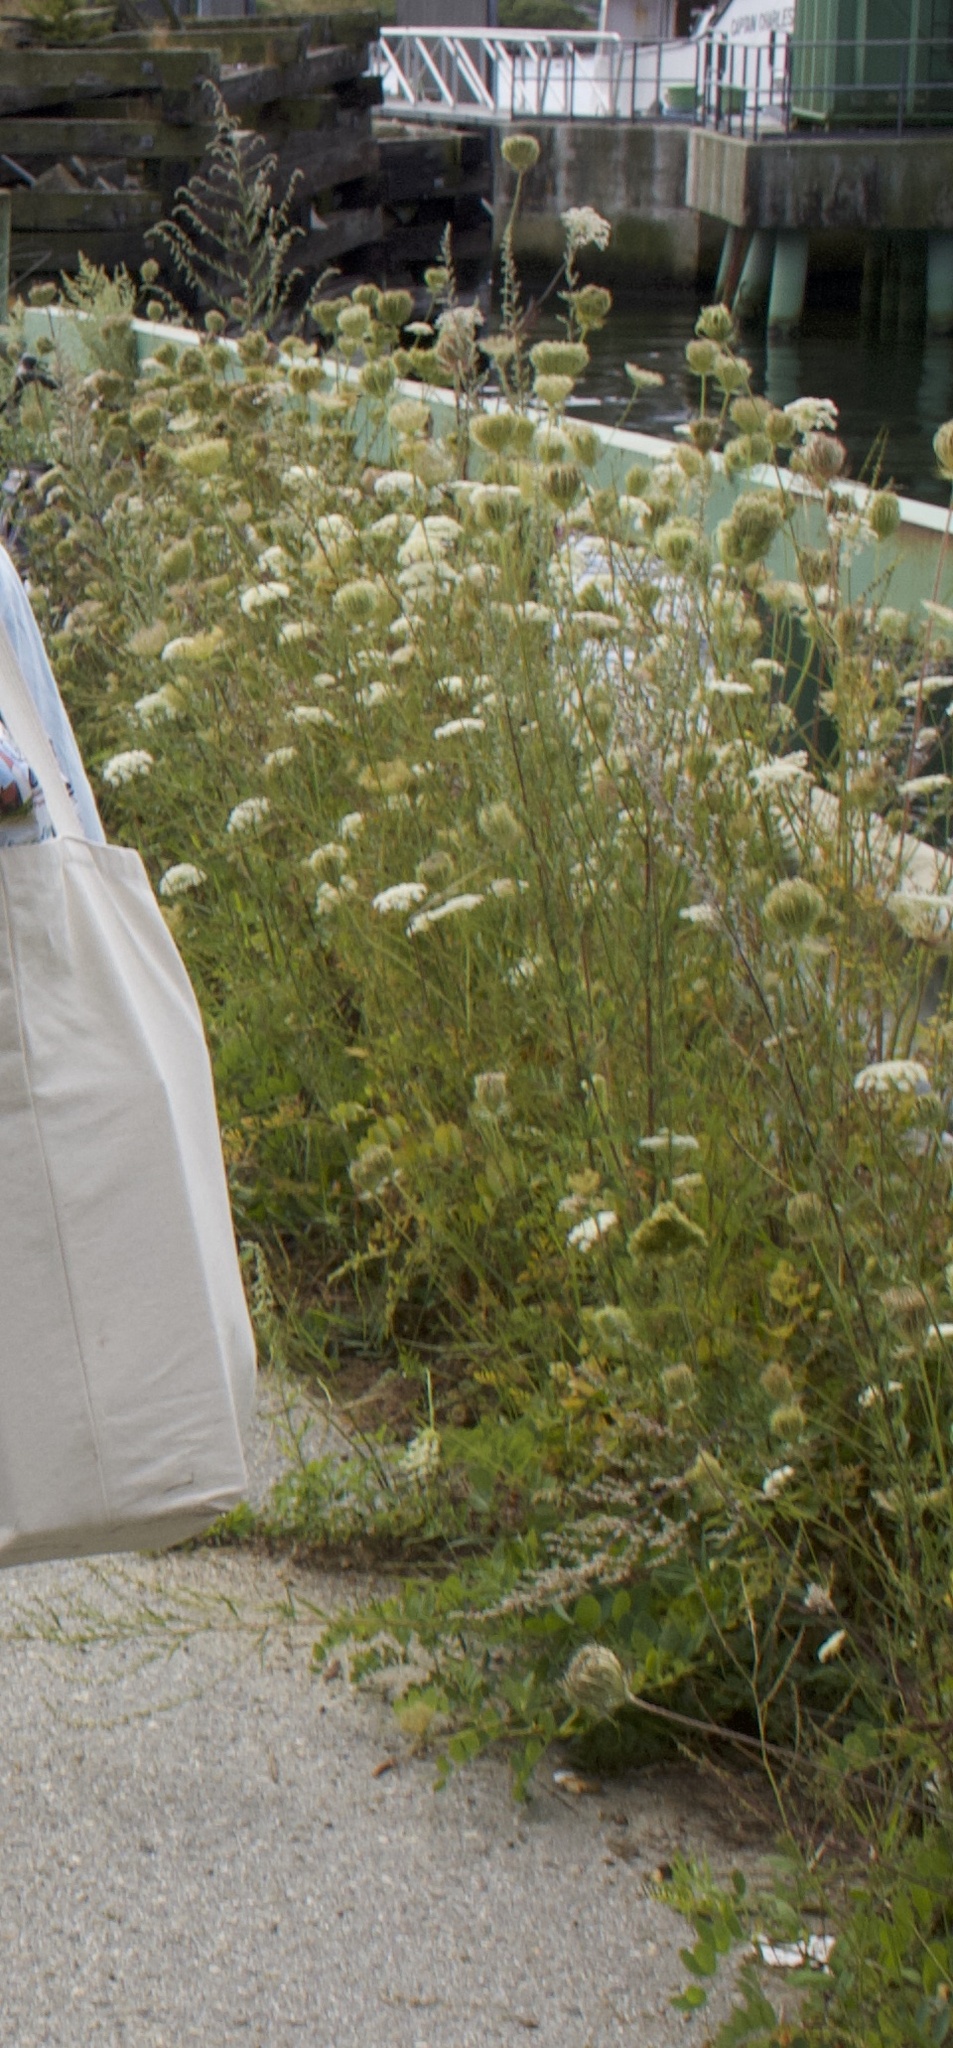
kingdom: Plantae
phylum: Tracheophyta
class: Magnoliopsida
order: Apiales
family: Apiaceae
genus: Daucus
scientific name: Daucus carota
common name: Wild carrot
